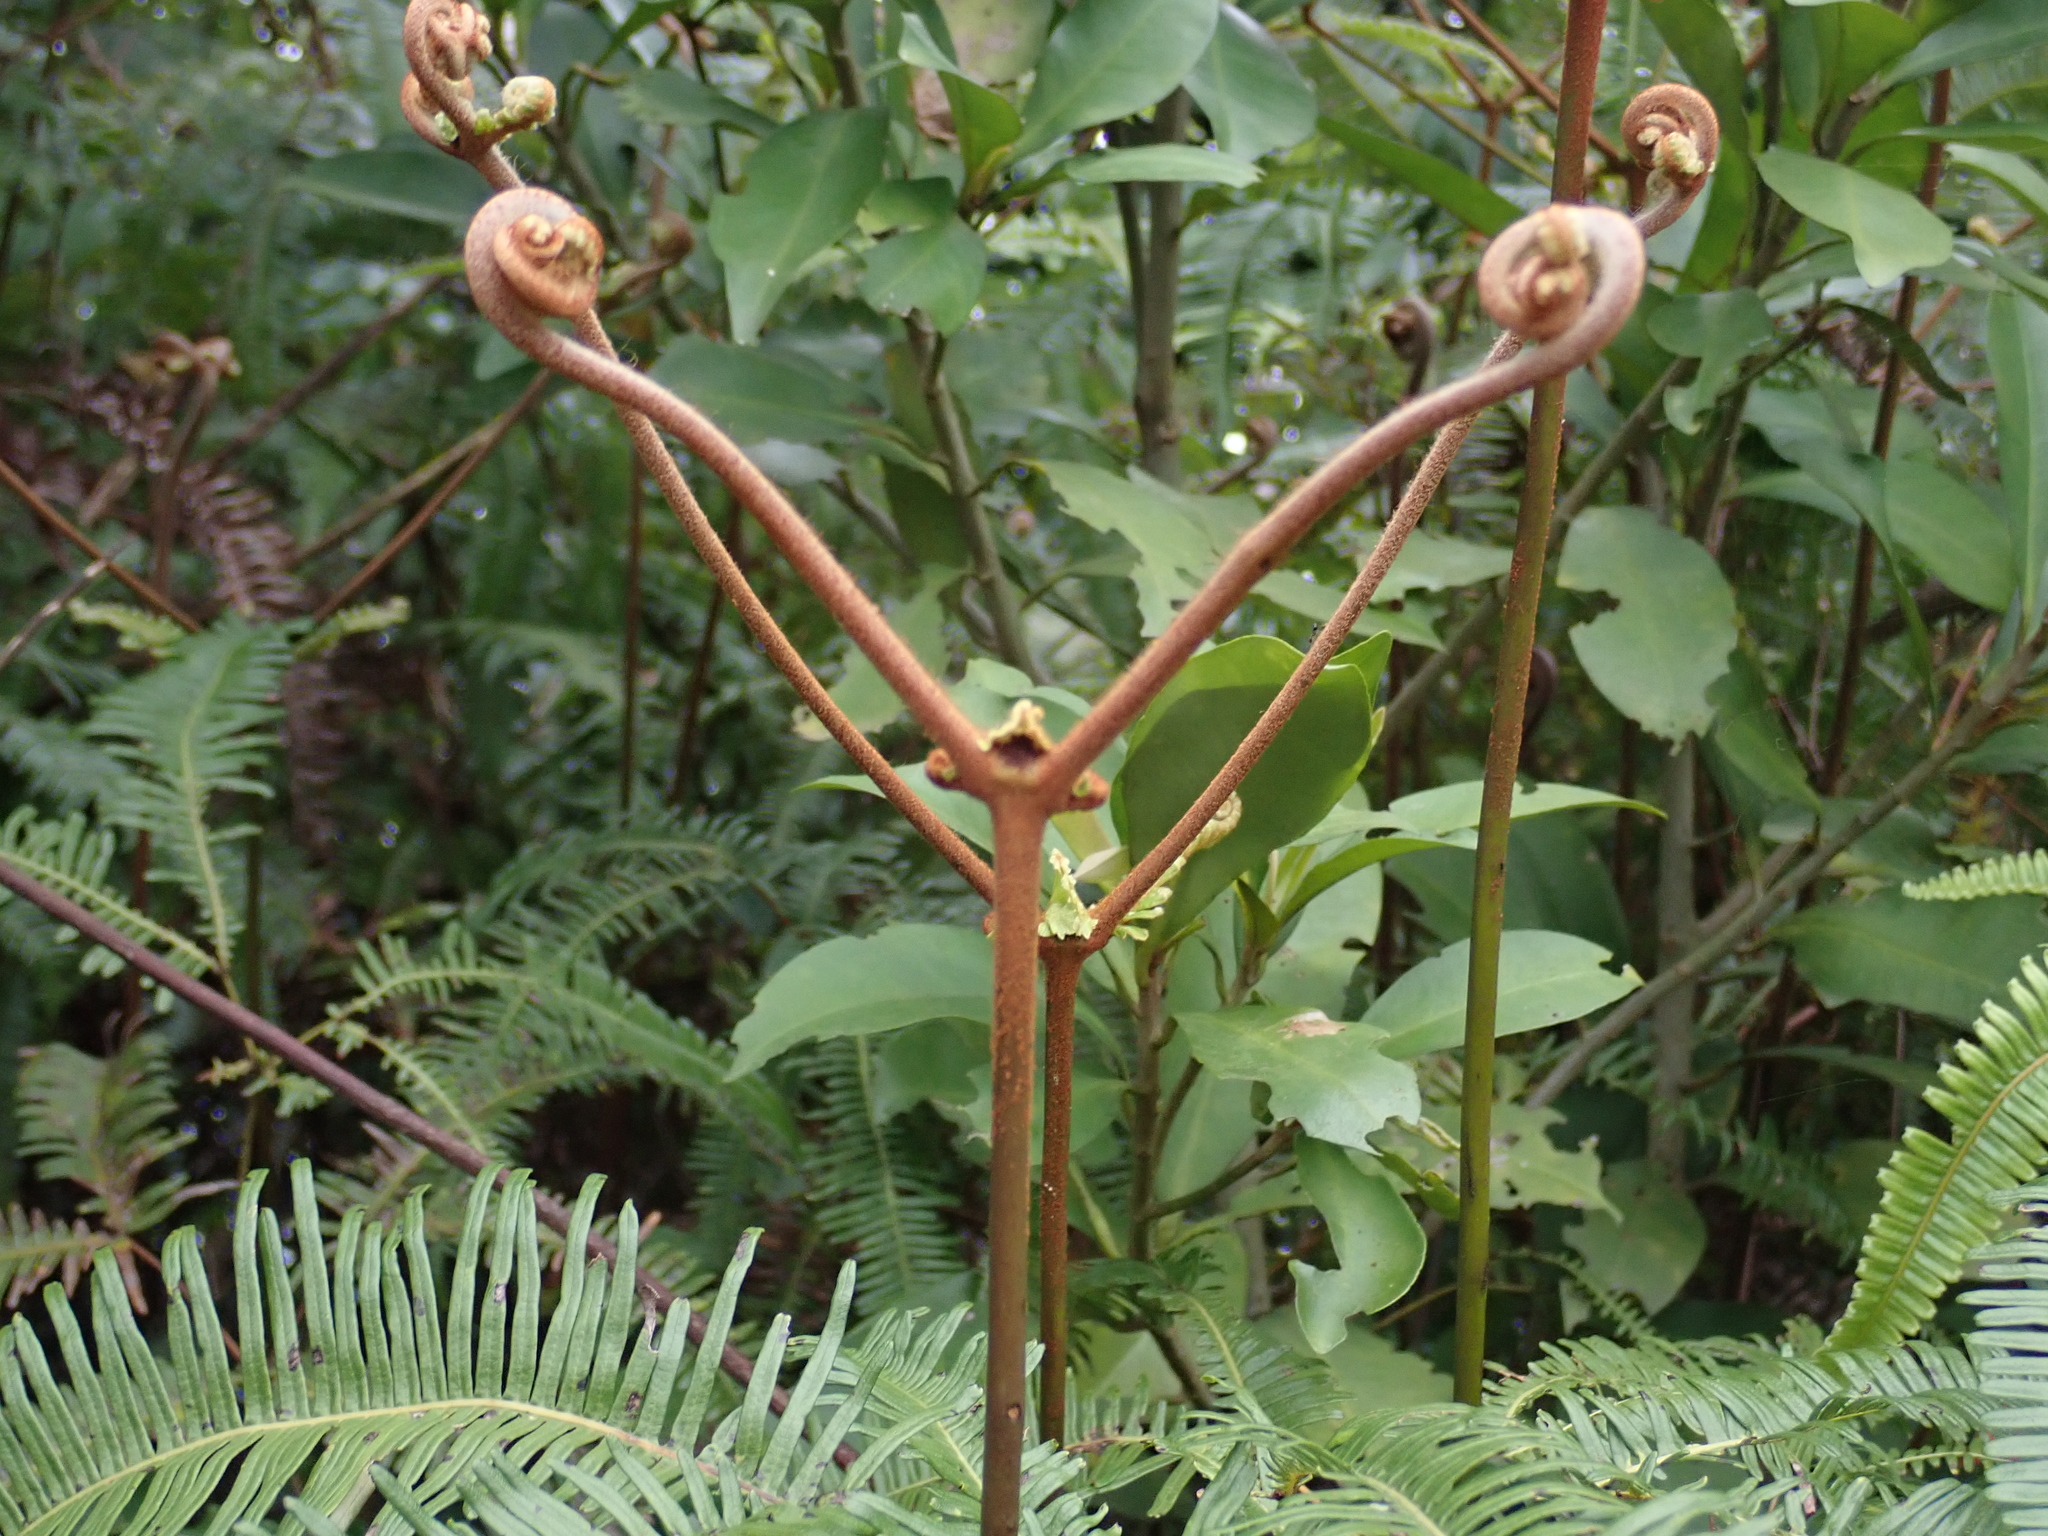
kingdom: Plantae
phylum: Tracheophyta
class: Polypodiopsida
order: Gleicheniales
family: Gleicheniaceae
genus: Dicranopteris
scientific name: Dicranopteris linearis
